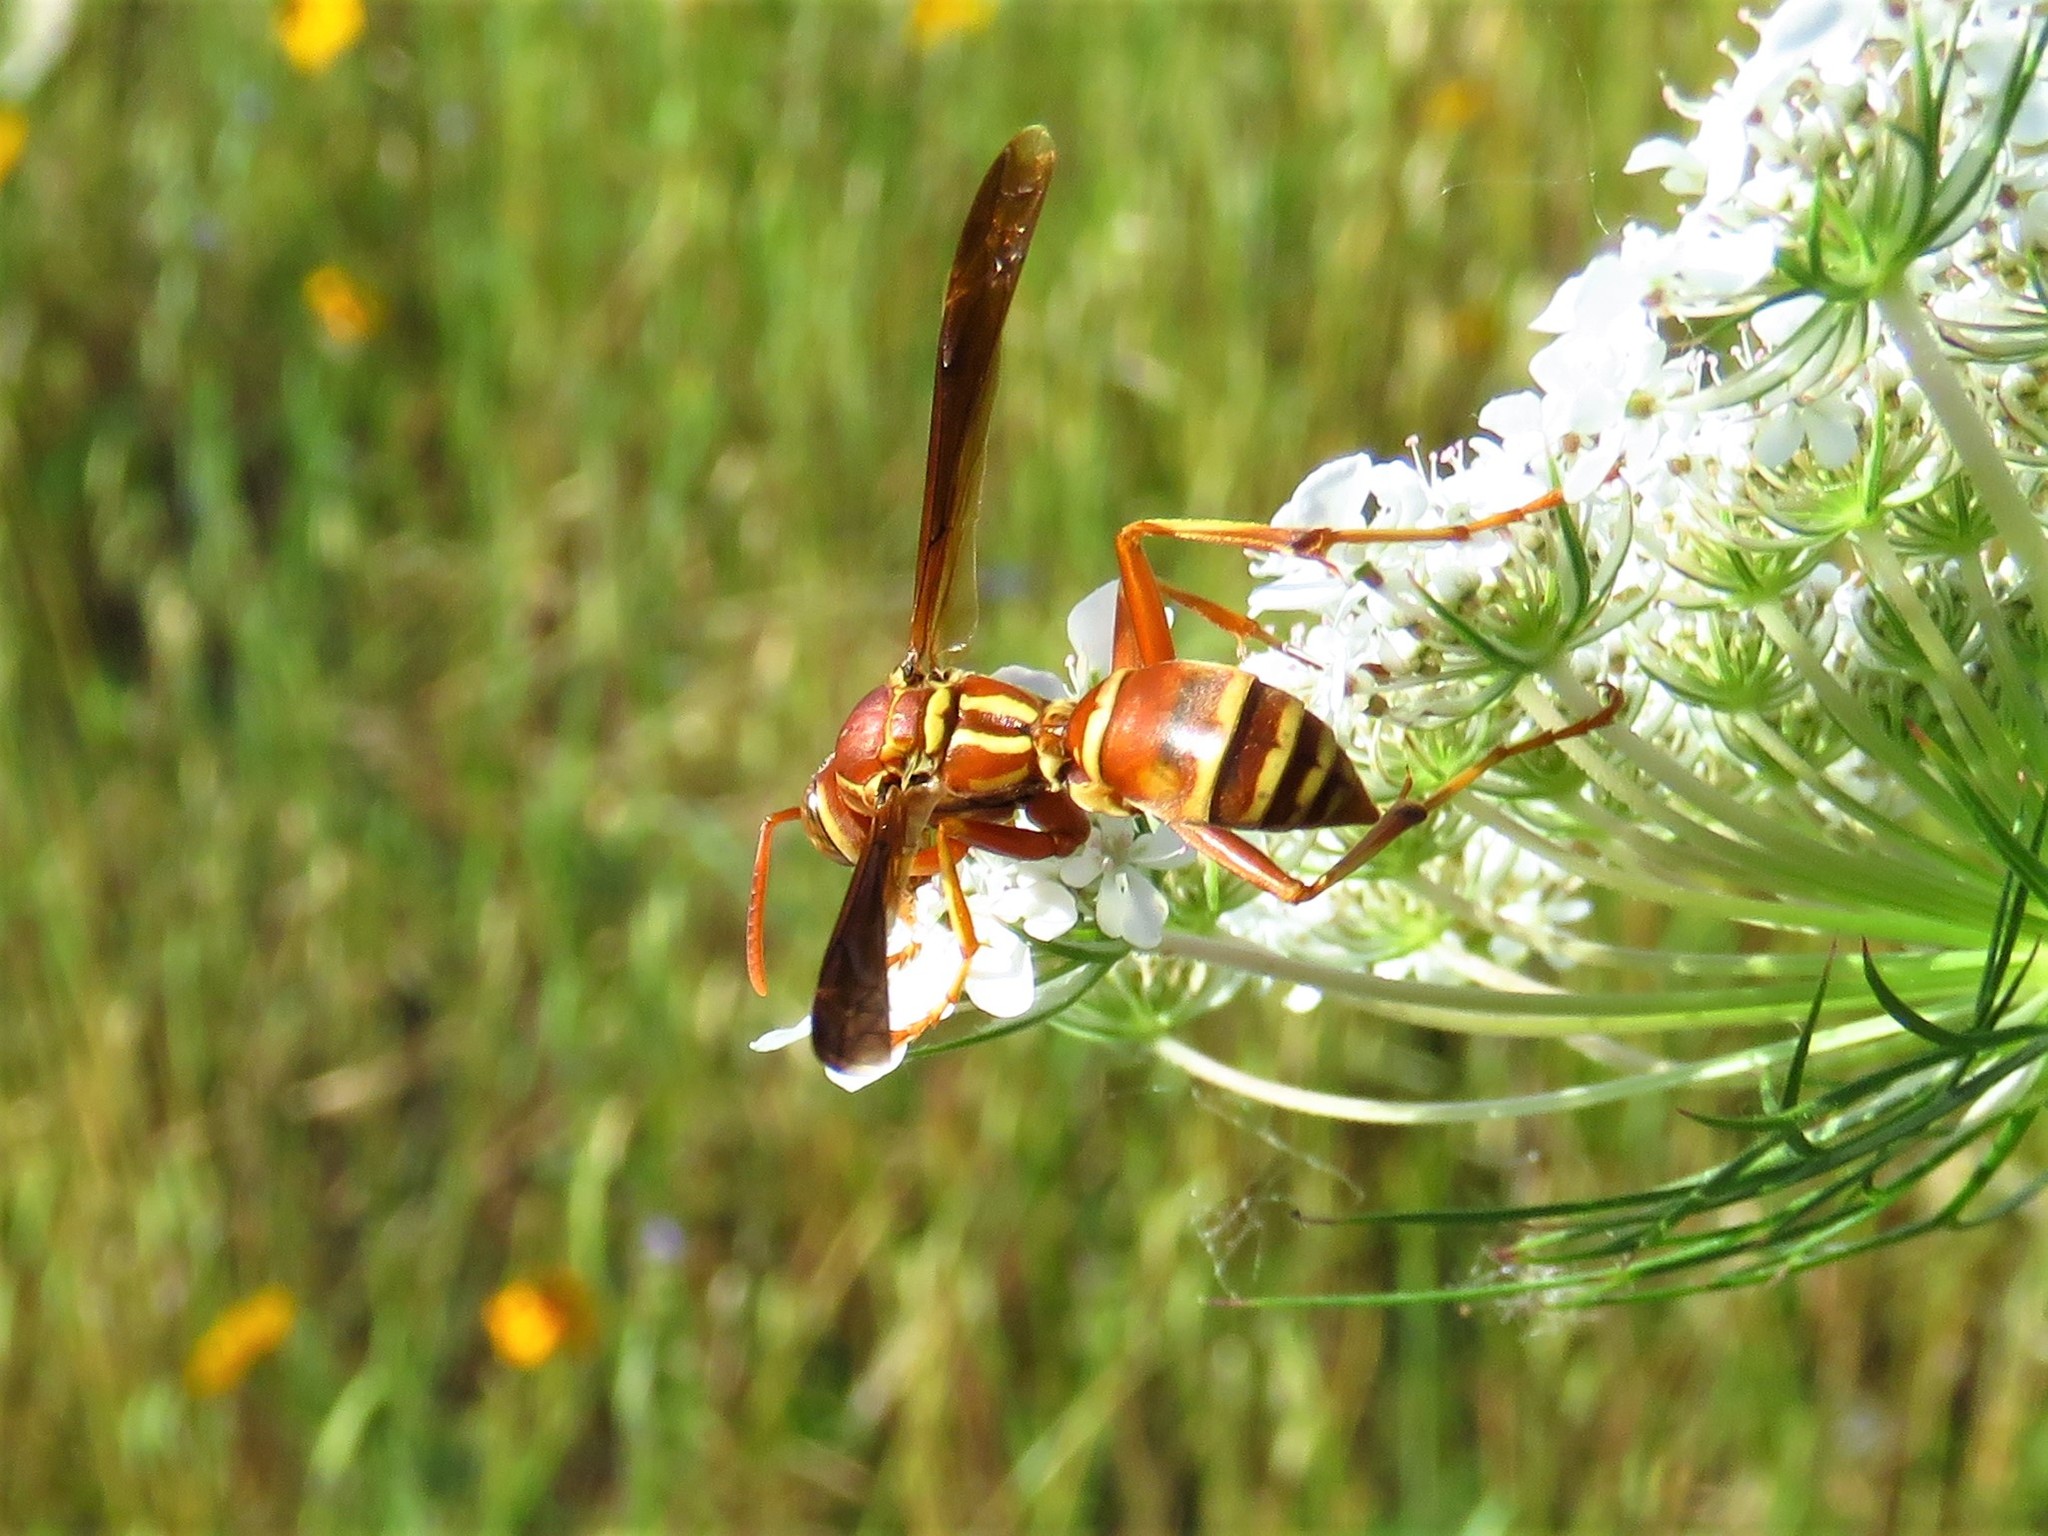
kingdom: Animalia
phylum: Arthropoda
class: Insecta
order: Hymenoptera
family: Eumenidae
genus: Polistes
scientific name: Polistes bellicosus
